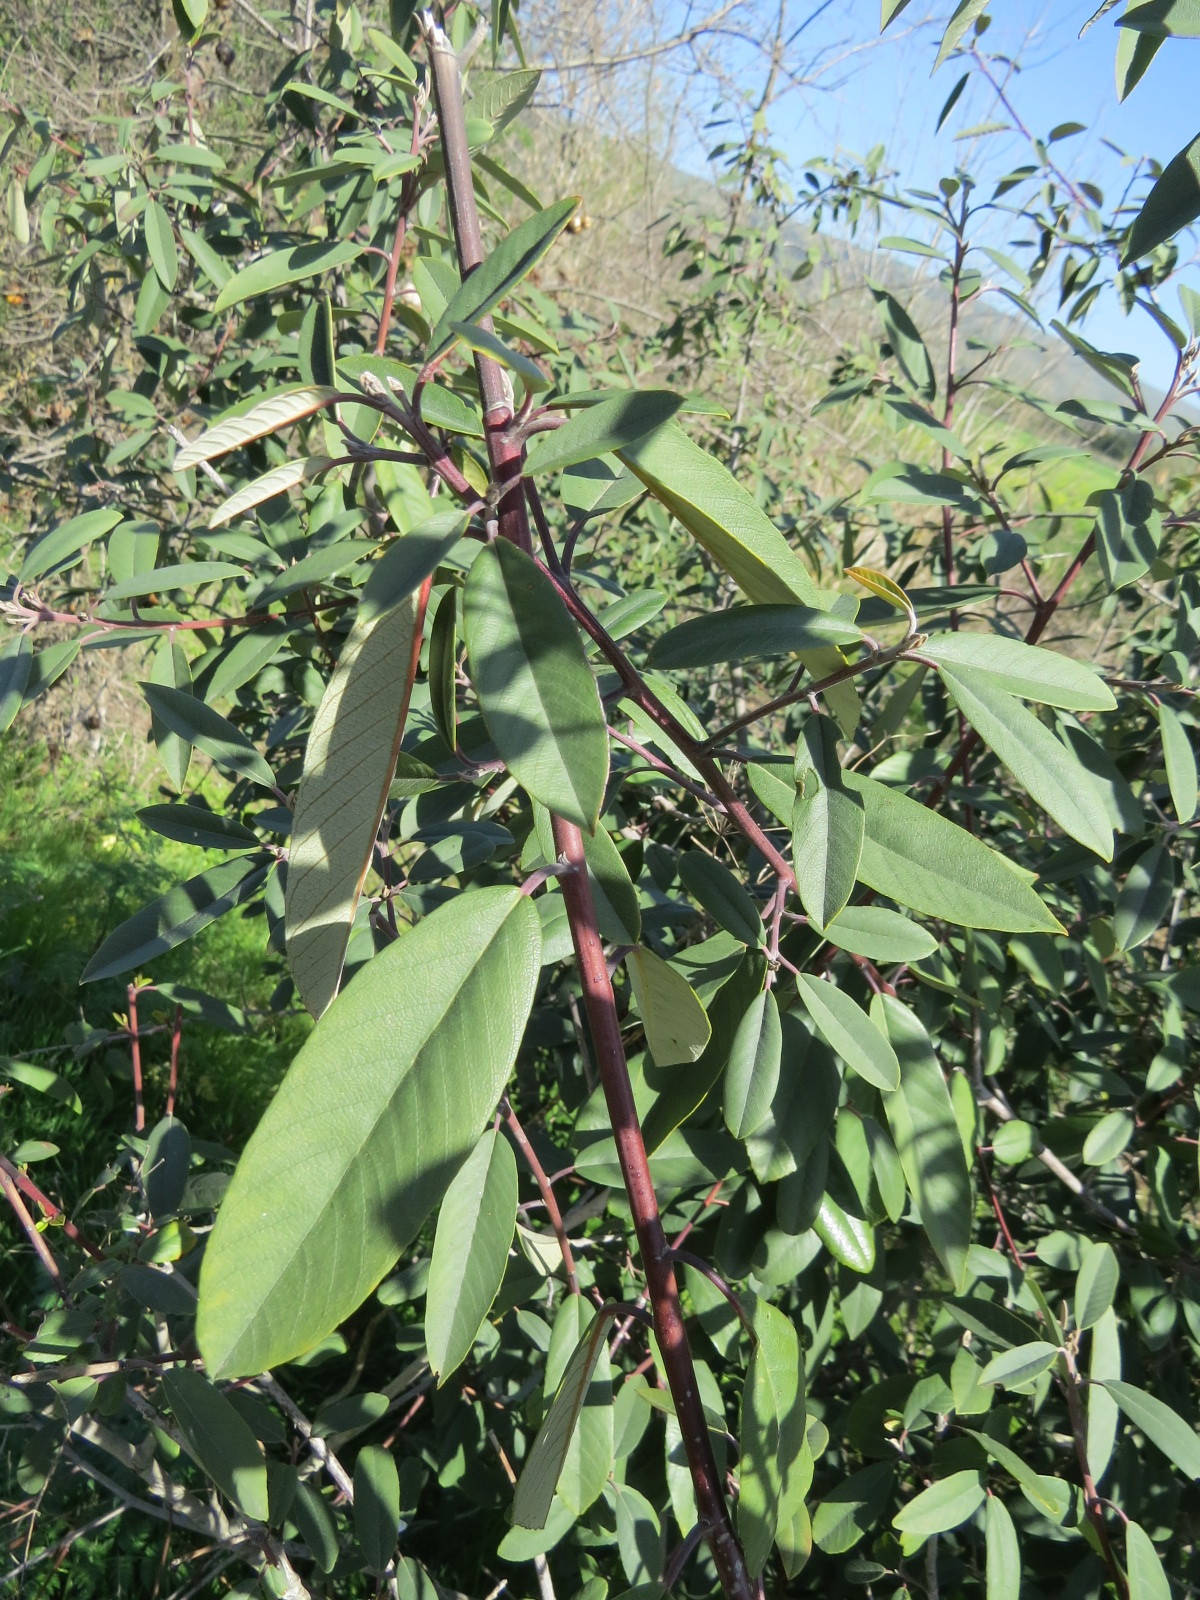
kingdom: Plantae
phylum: Tracheophyta
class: Magnoliopsida
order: Rosales
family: Rhamnaceae
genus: Frangula
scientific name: Frangula californica
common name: California buckthorn
